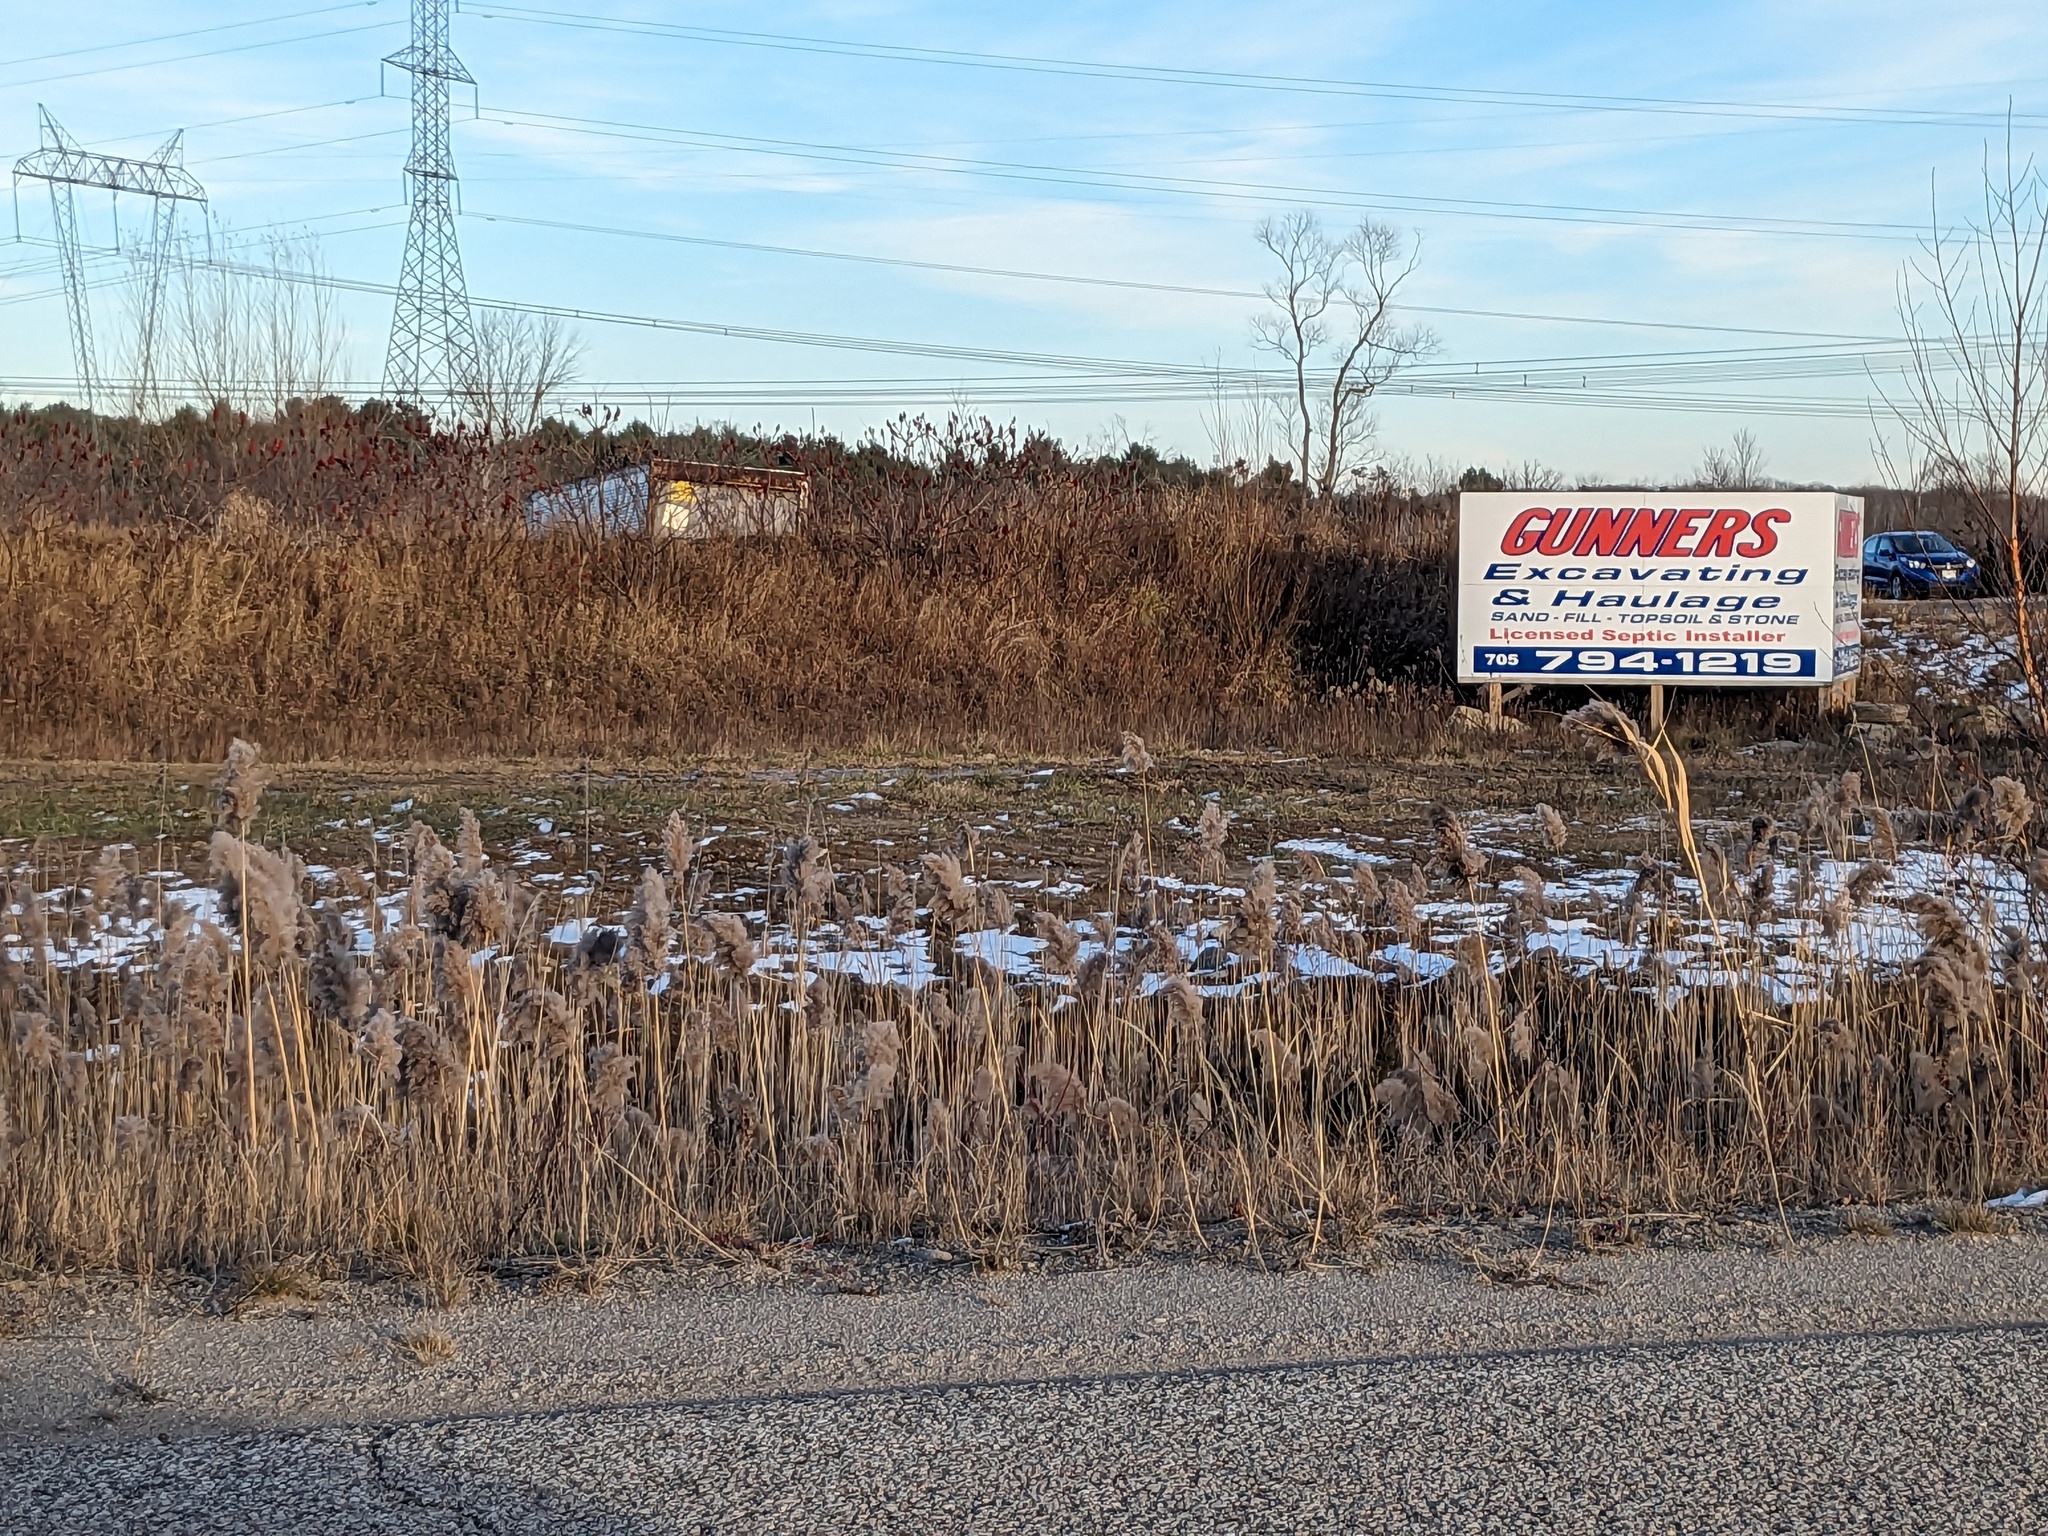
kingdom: Plantae
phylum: Tracheophyta
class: Liliopsida
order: Poales
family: Poaceae
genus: Phragmites
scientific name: Phragmites australis
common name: Common reed
